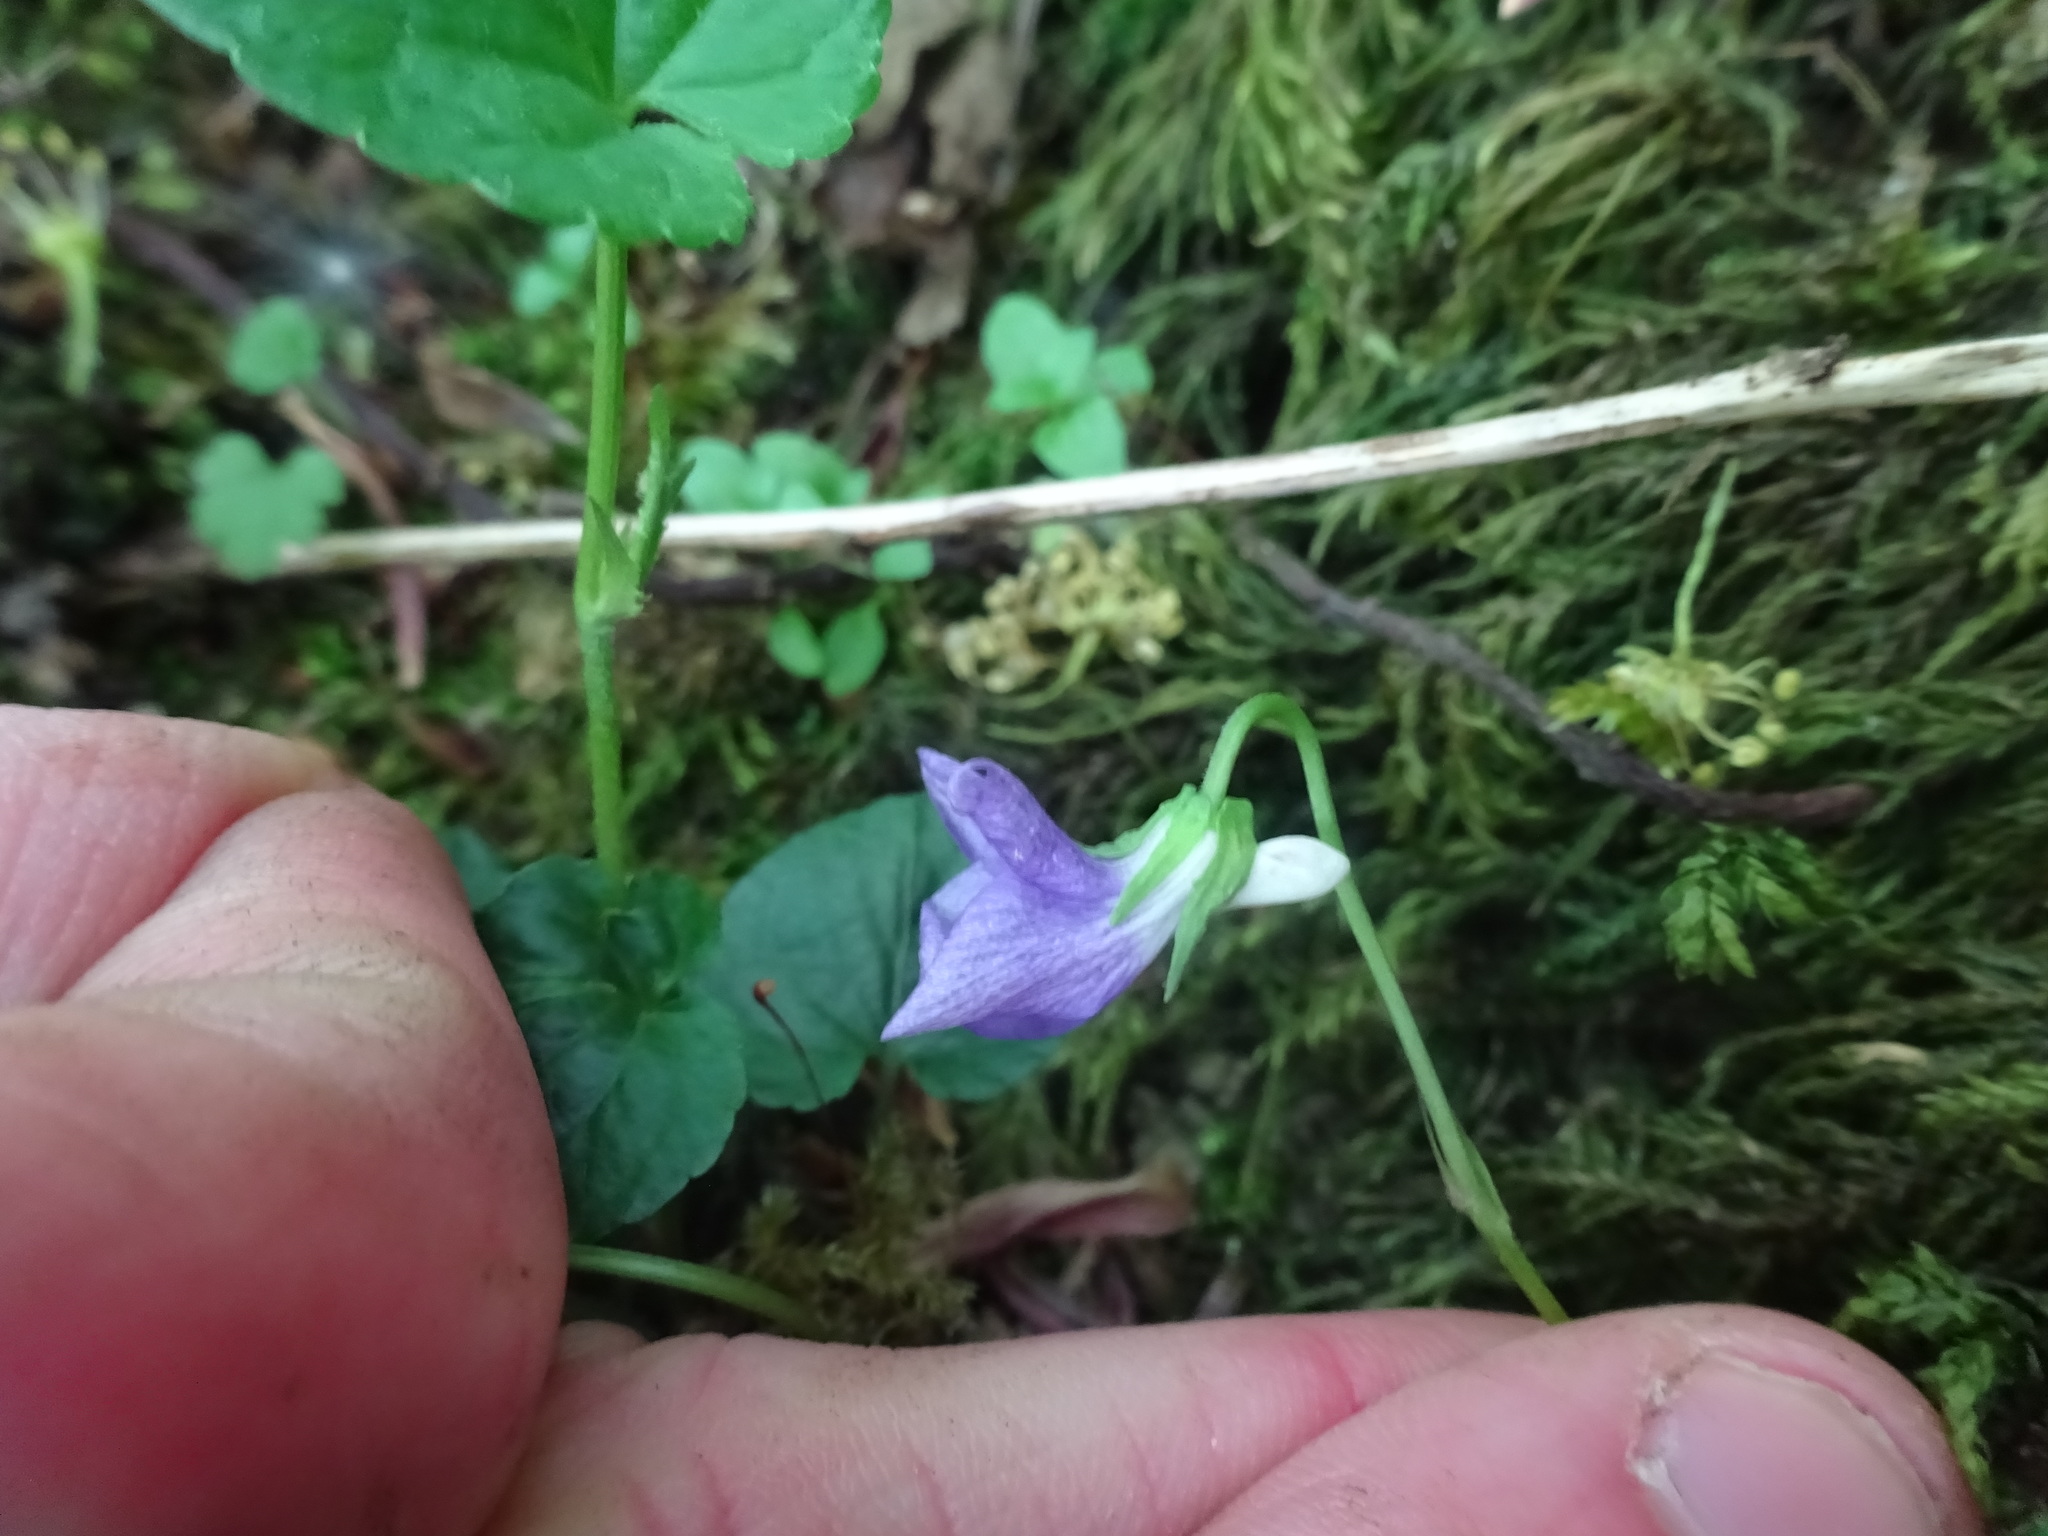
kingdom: Plantae
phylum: Tracheophyta
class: Magnoliopsida
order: Malpighiales
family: Violaceae
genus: Viola
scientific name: Viola riviniana
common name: Common dog-violet
